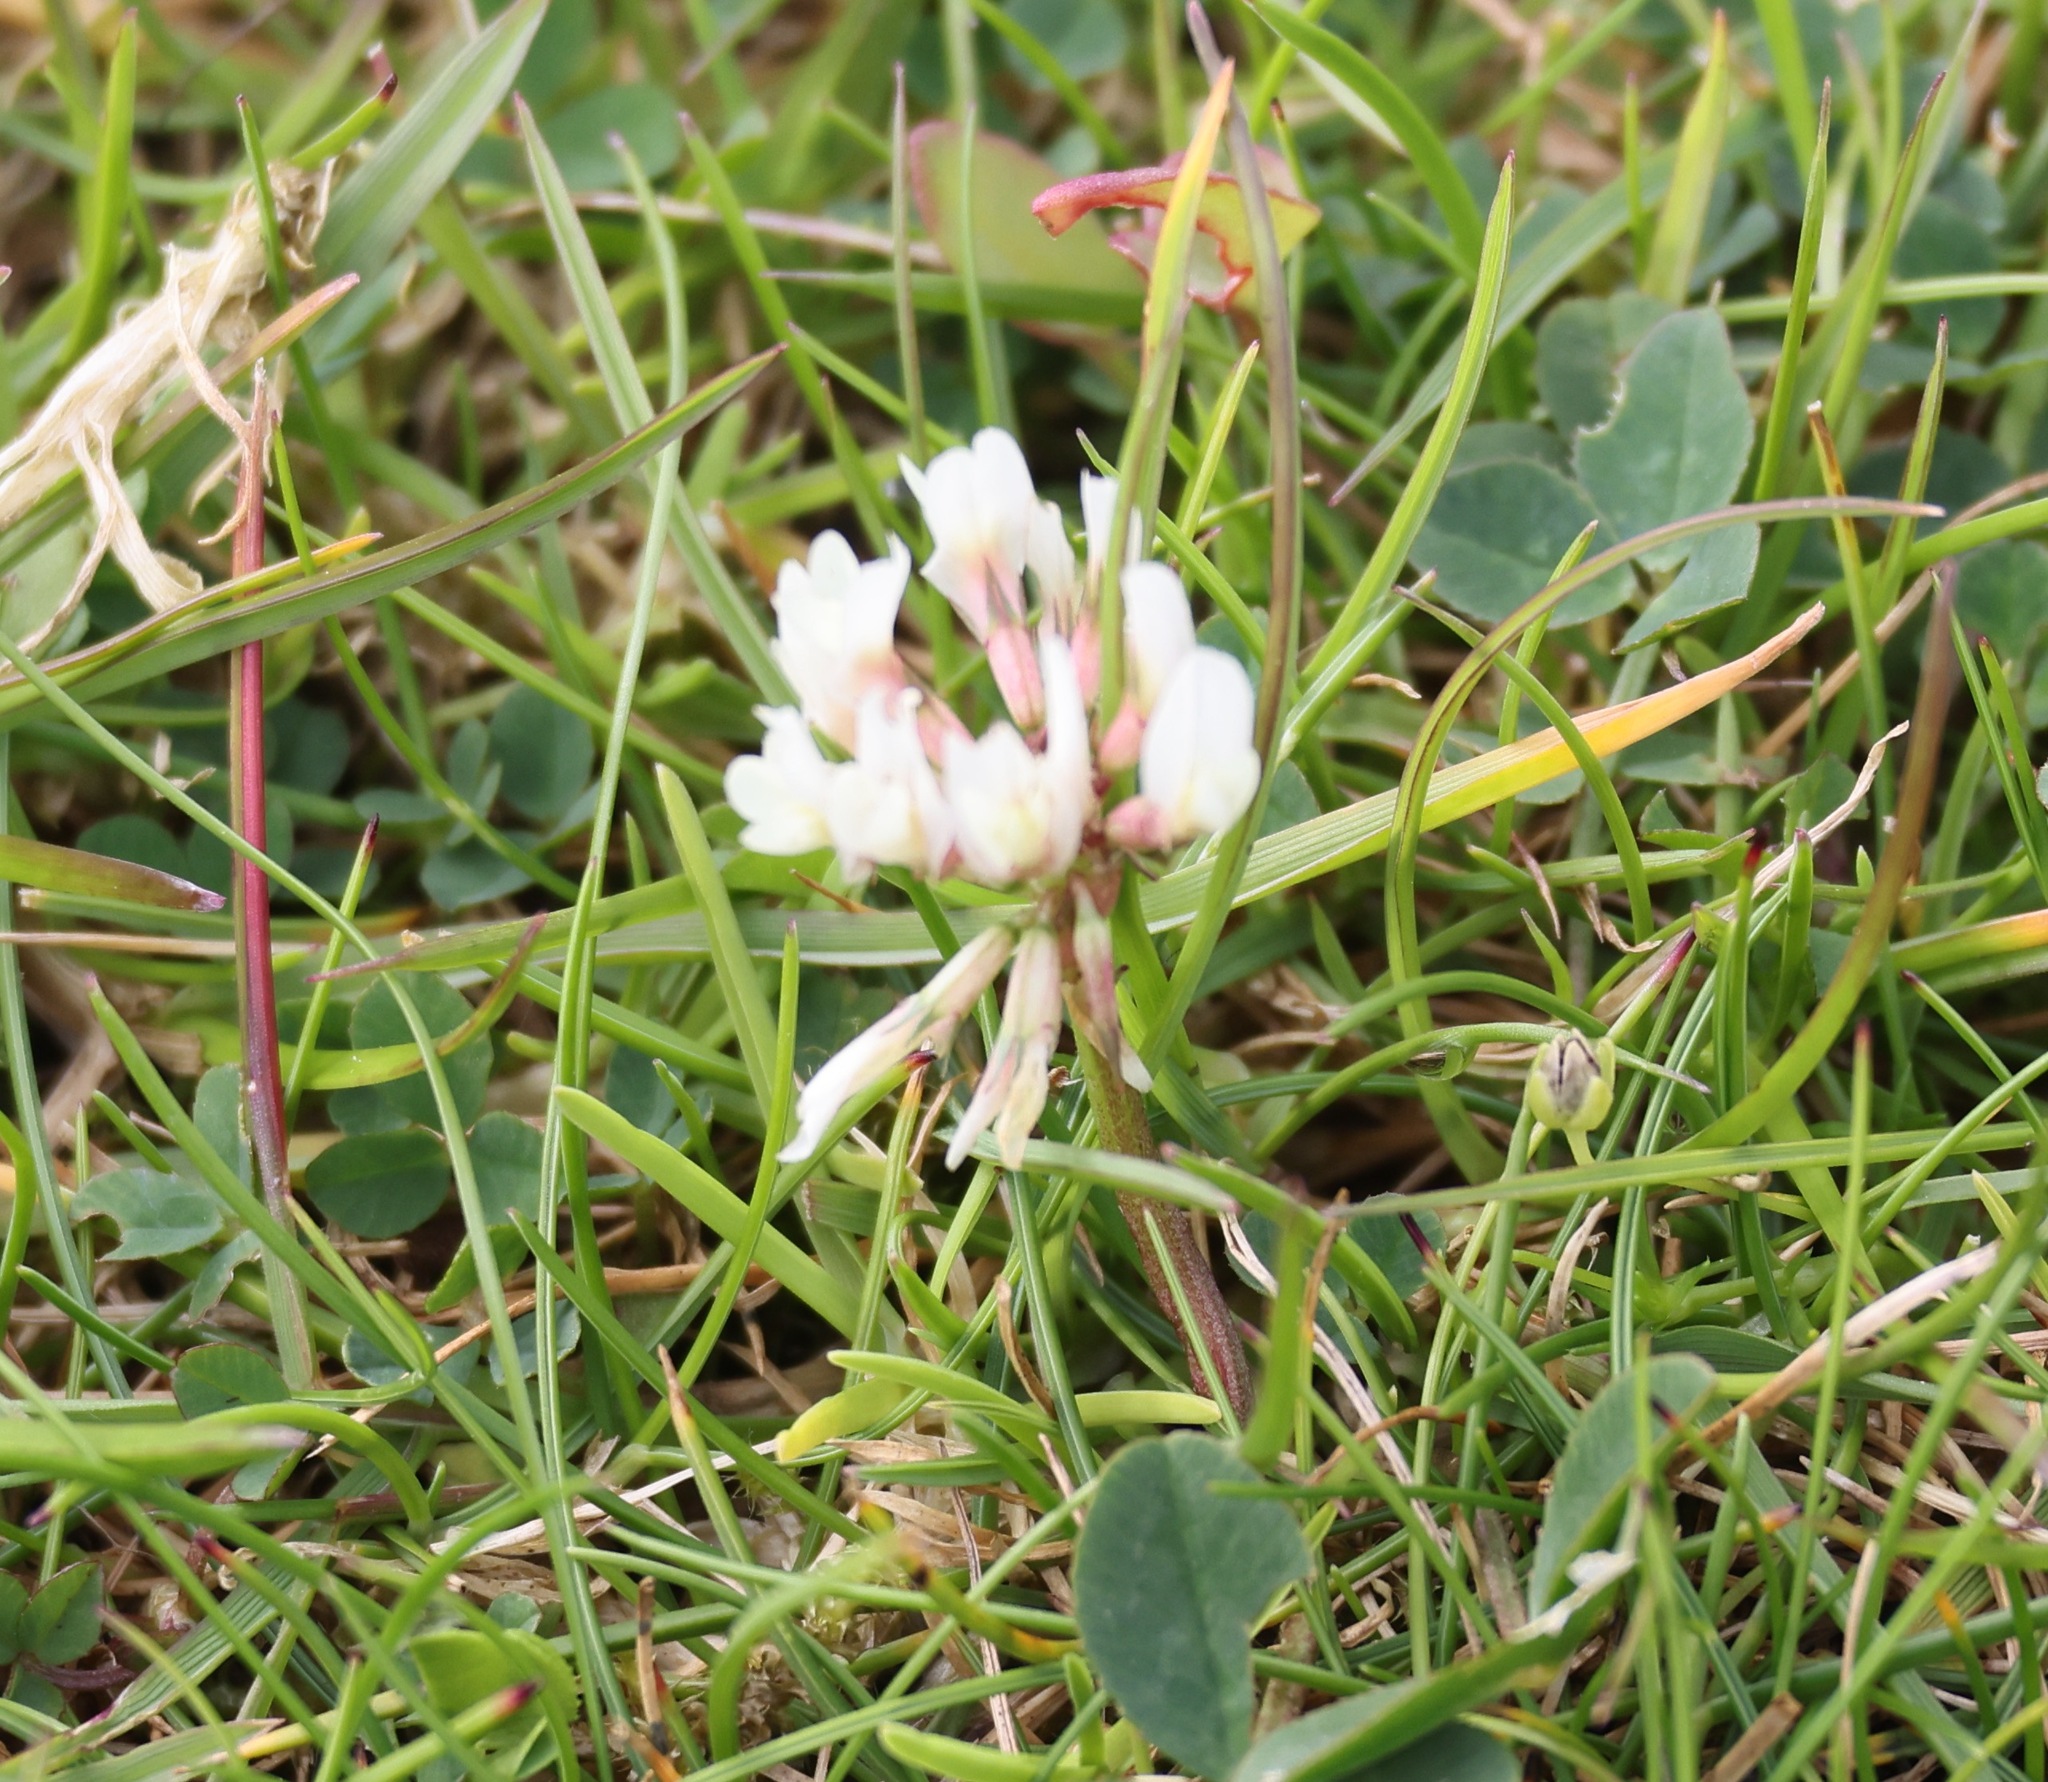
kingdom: Plantae
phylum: Tracheophyta
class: Magnoliopsida
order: Fabales
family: Fabaceae
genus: Trifolium
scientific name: Trifolium repens
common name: White clover
